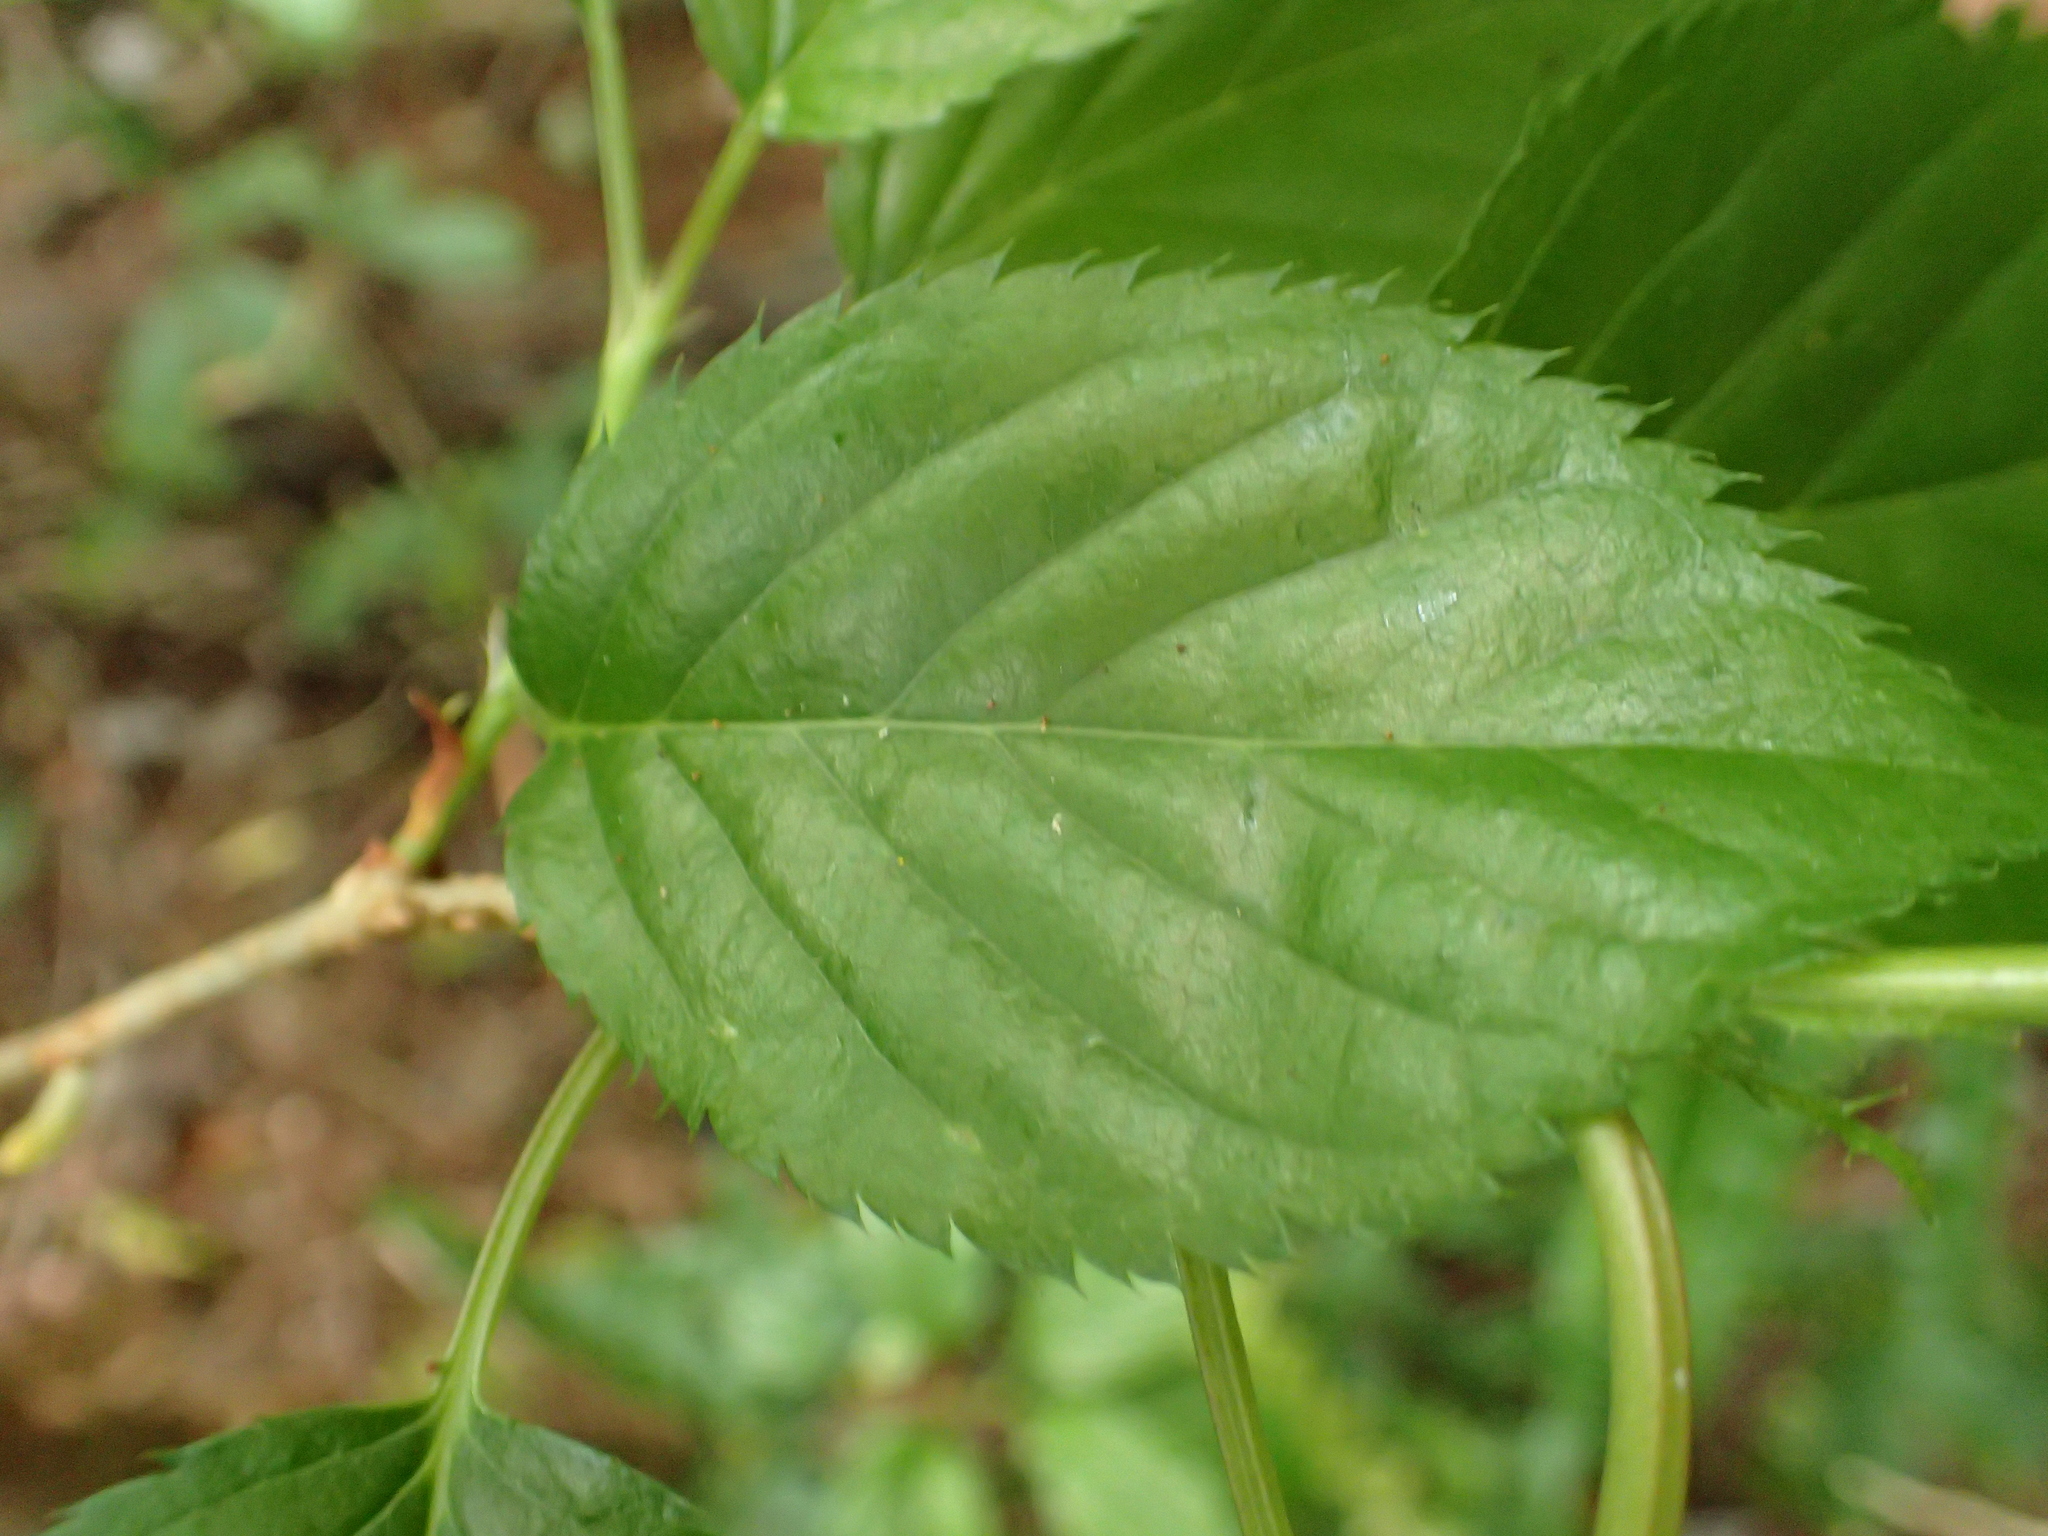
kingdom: Plantae
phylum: Tracheophyta
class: Magnoliopsida
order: Rosales
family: Rosaceae
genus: Prunus
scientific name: Prunus serrulata
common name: Japanese cherry
